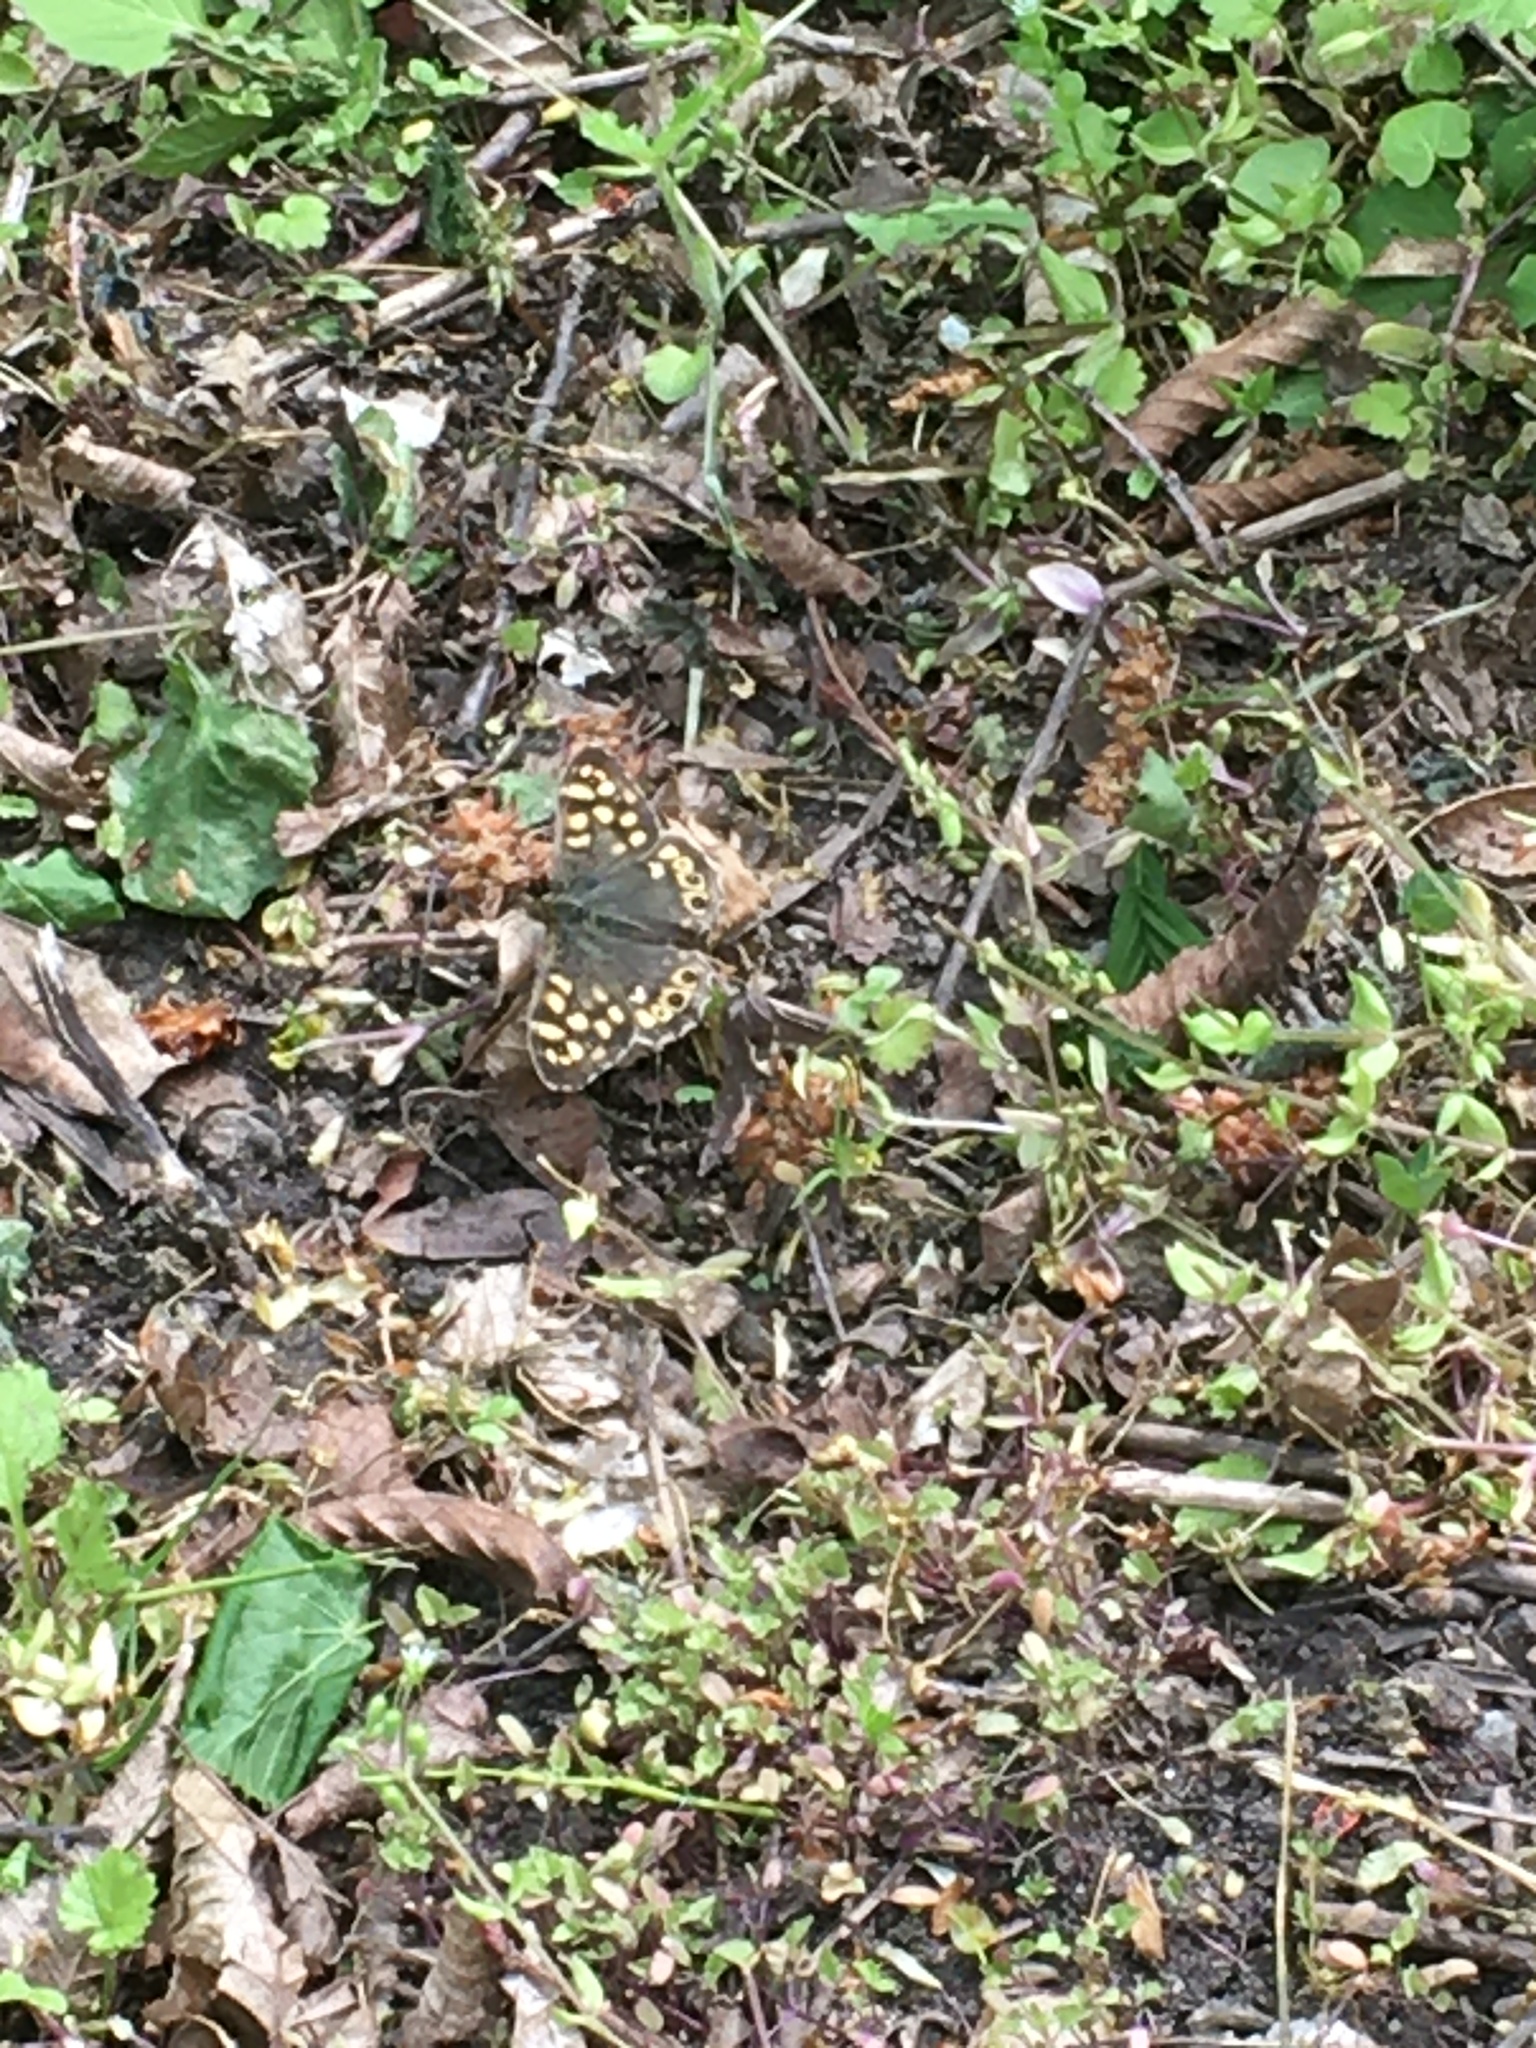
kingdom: Animalia
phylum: Arthropoda
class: Insecta
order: Lepidoptera
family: Nymphalidae
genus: Pararge
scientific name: Pararge aegeria
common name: Speckled wood
